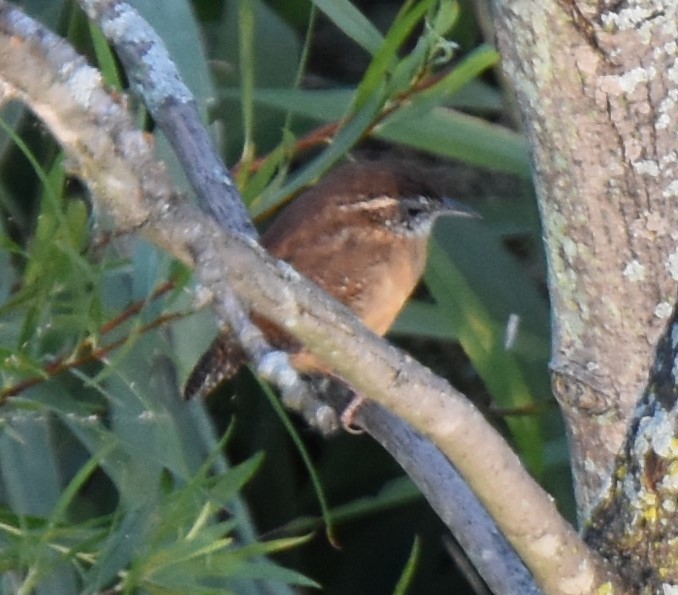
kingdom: Animalia
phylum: Chordata
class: Aves
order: Passeriformes
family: Troglodytidae
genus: Thryothorus
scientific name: Thryothorus ludovicianus
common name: Carolina wren
